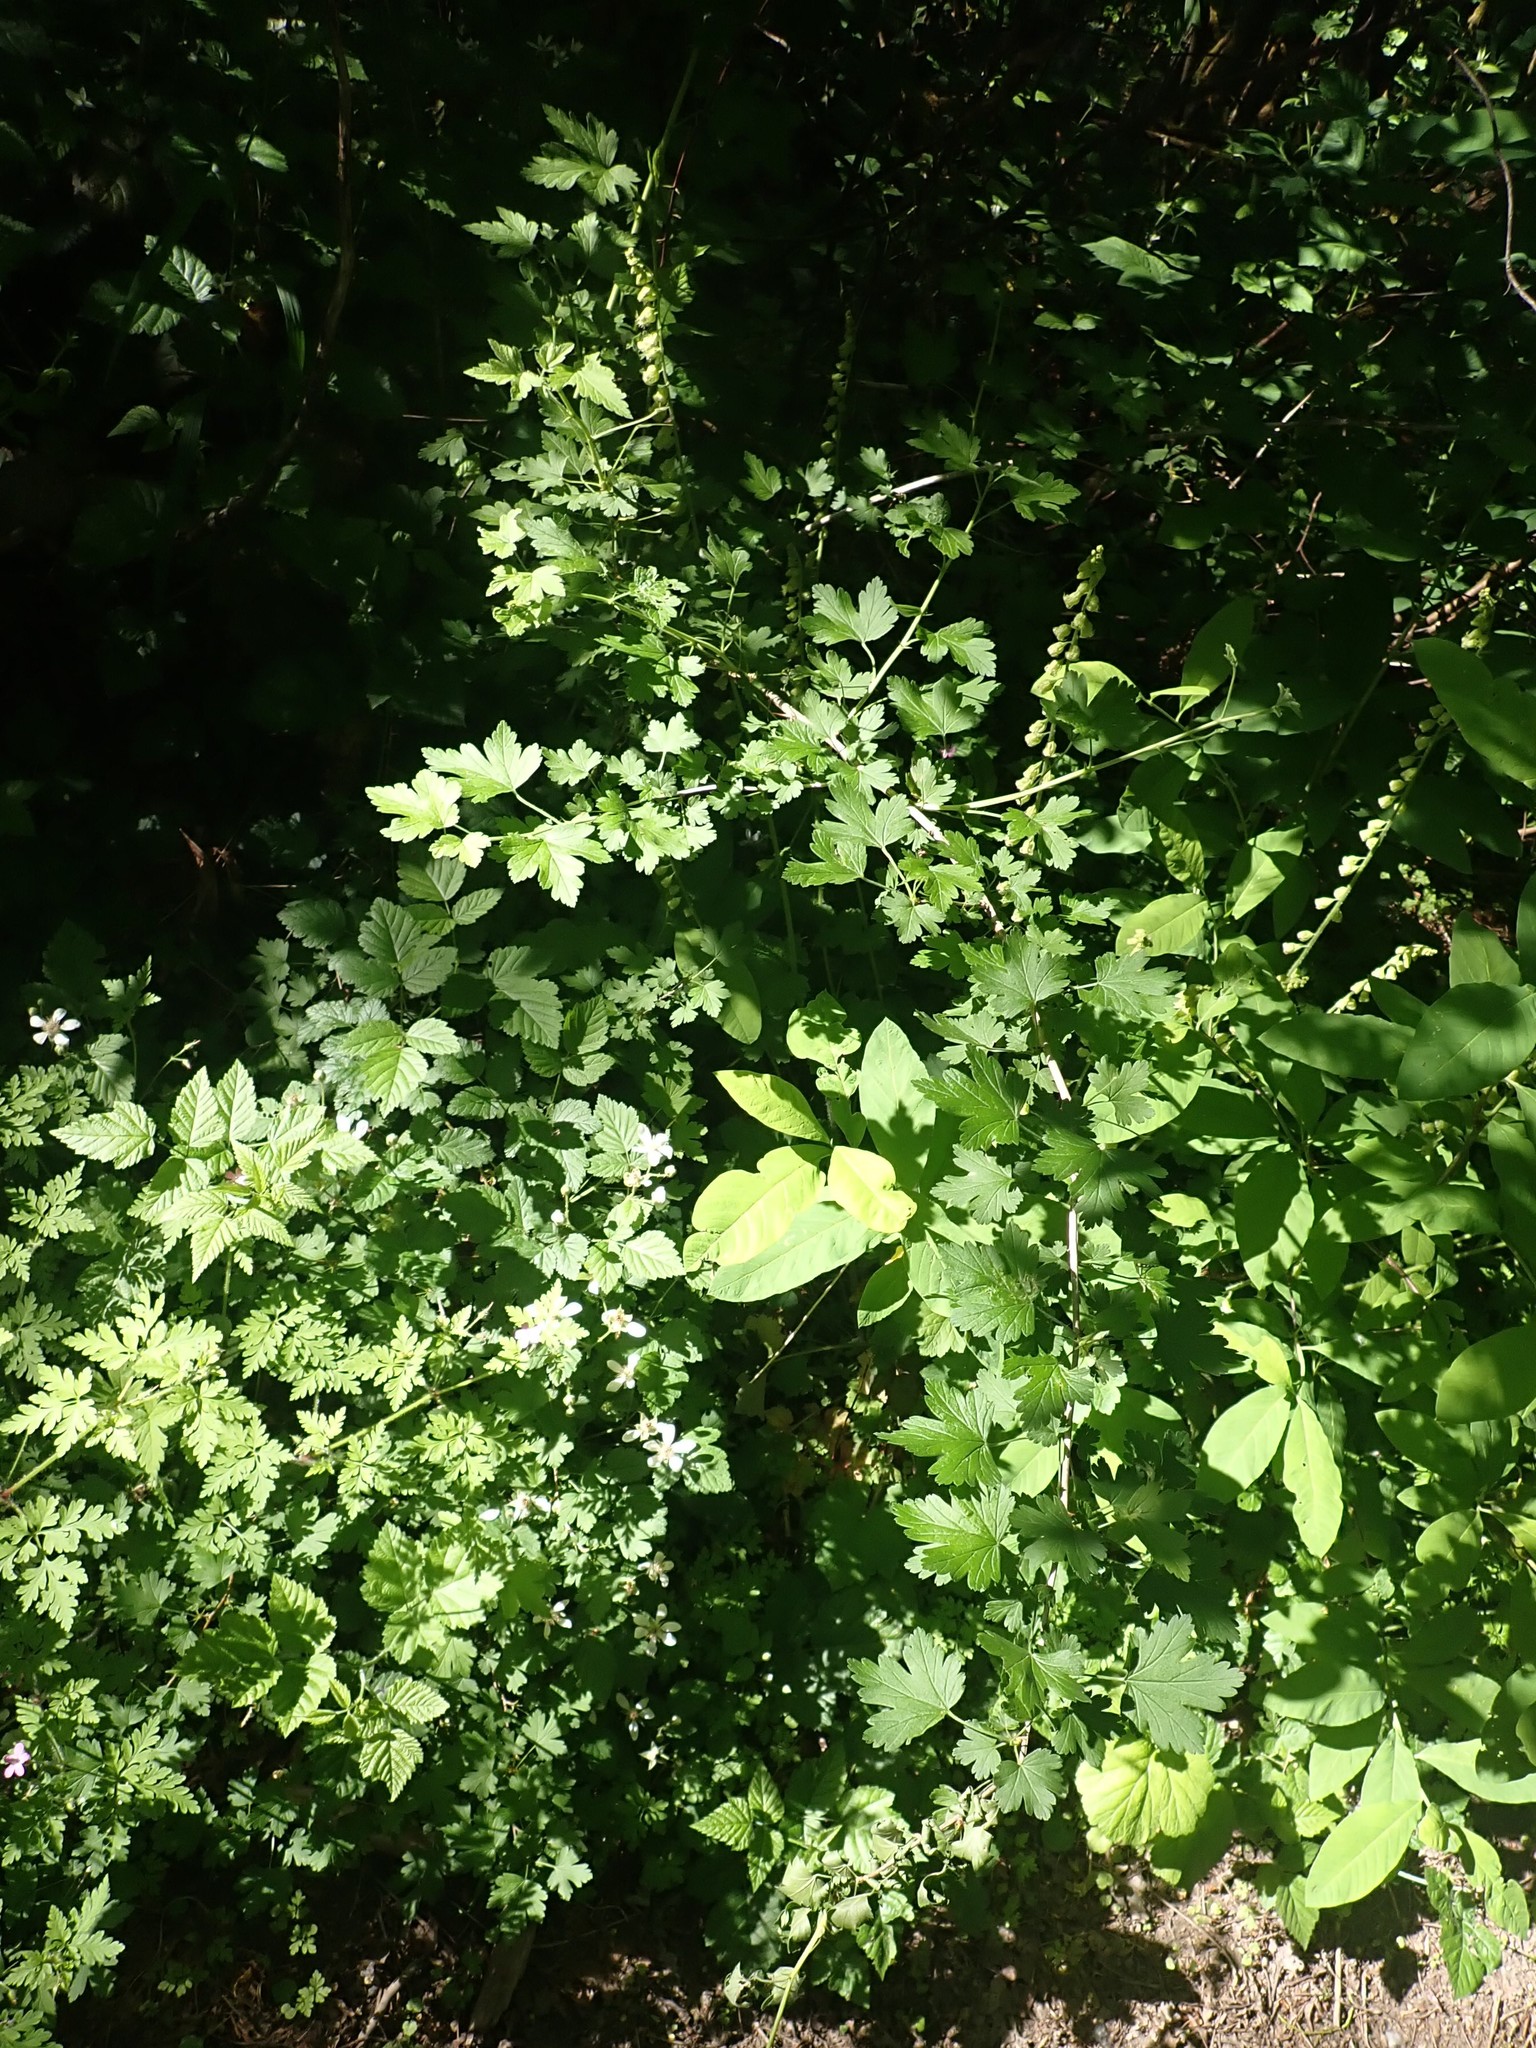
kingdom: Animalia
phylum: Arthropoda
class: Insecta
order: Hymenoptera
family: Tenthredinidae
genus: Nematus
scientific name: Nematus ribesii
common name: Imported currantworm
